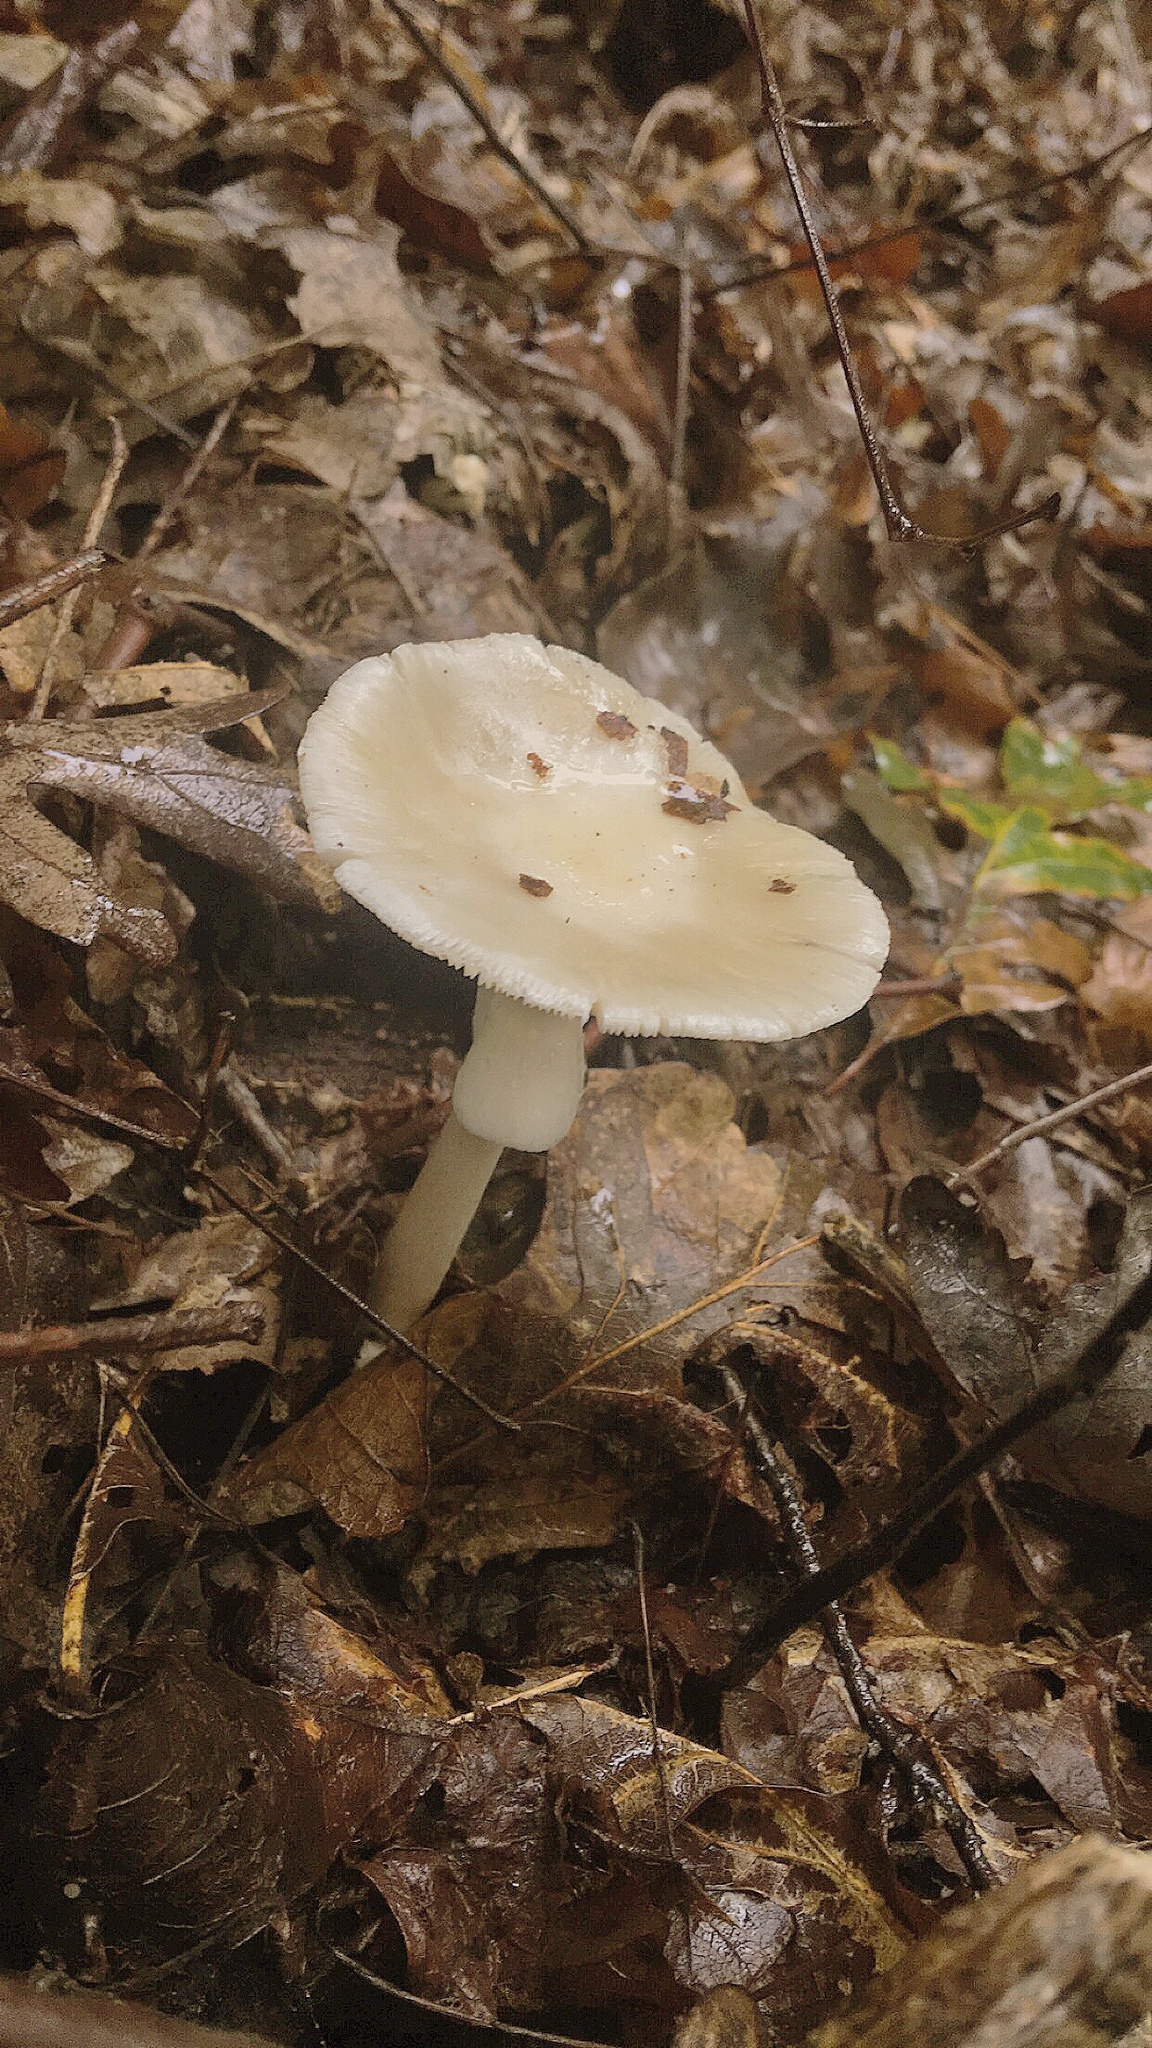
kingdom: Fungi
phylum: Basidiomycota
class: Agaricomycetes
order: Agaricales
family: Amanitaceae
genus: Amanita
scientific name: Amanita bisporigera
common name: Eastern north american destroying angel
